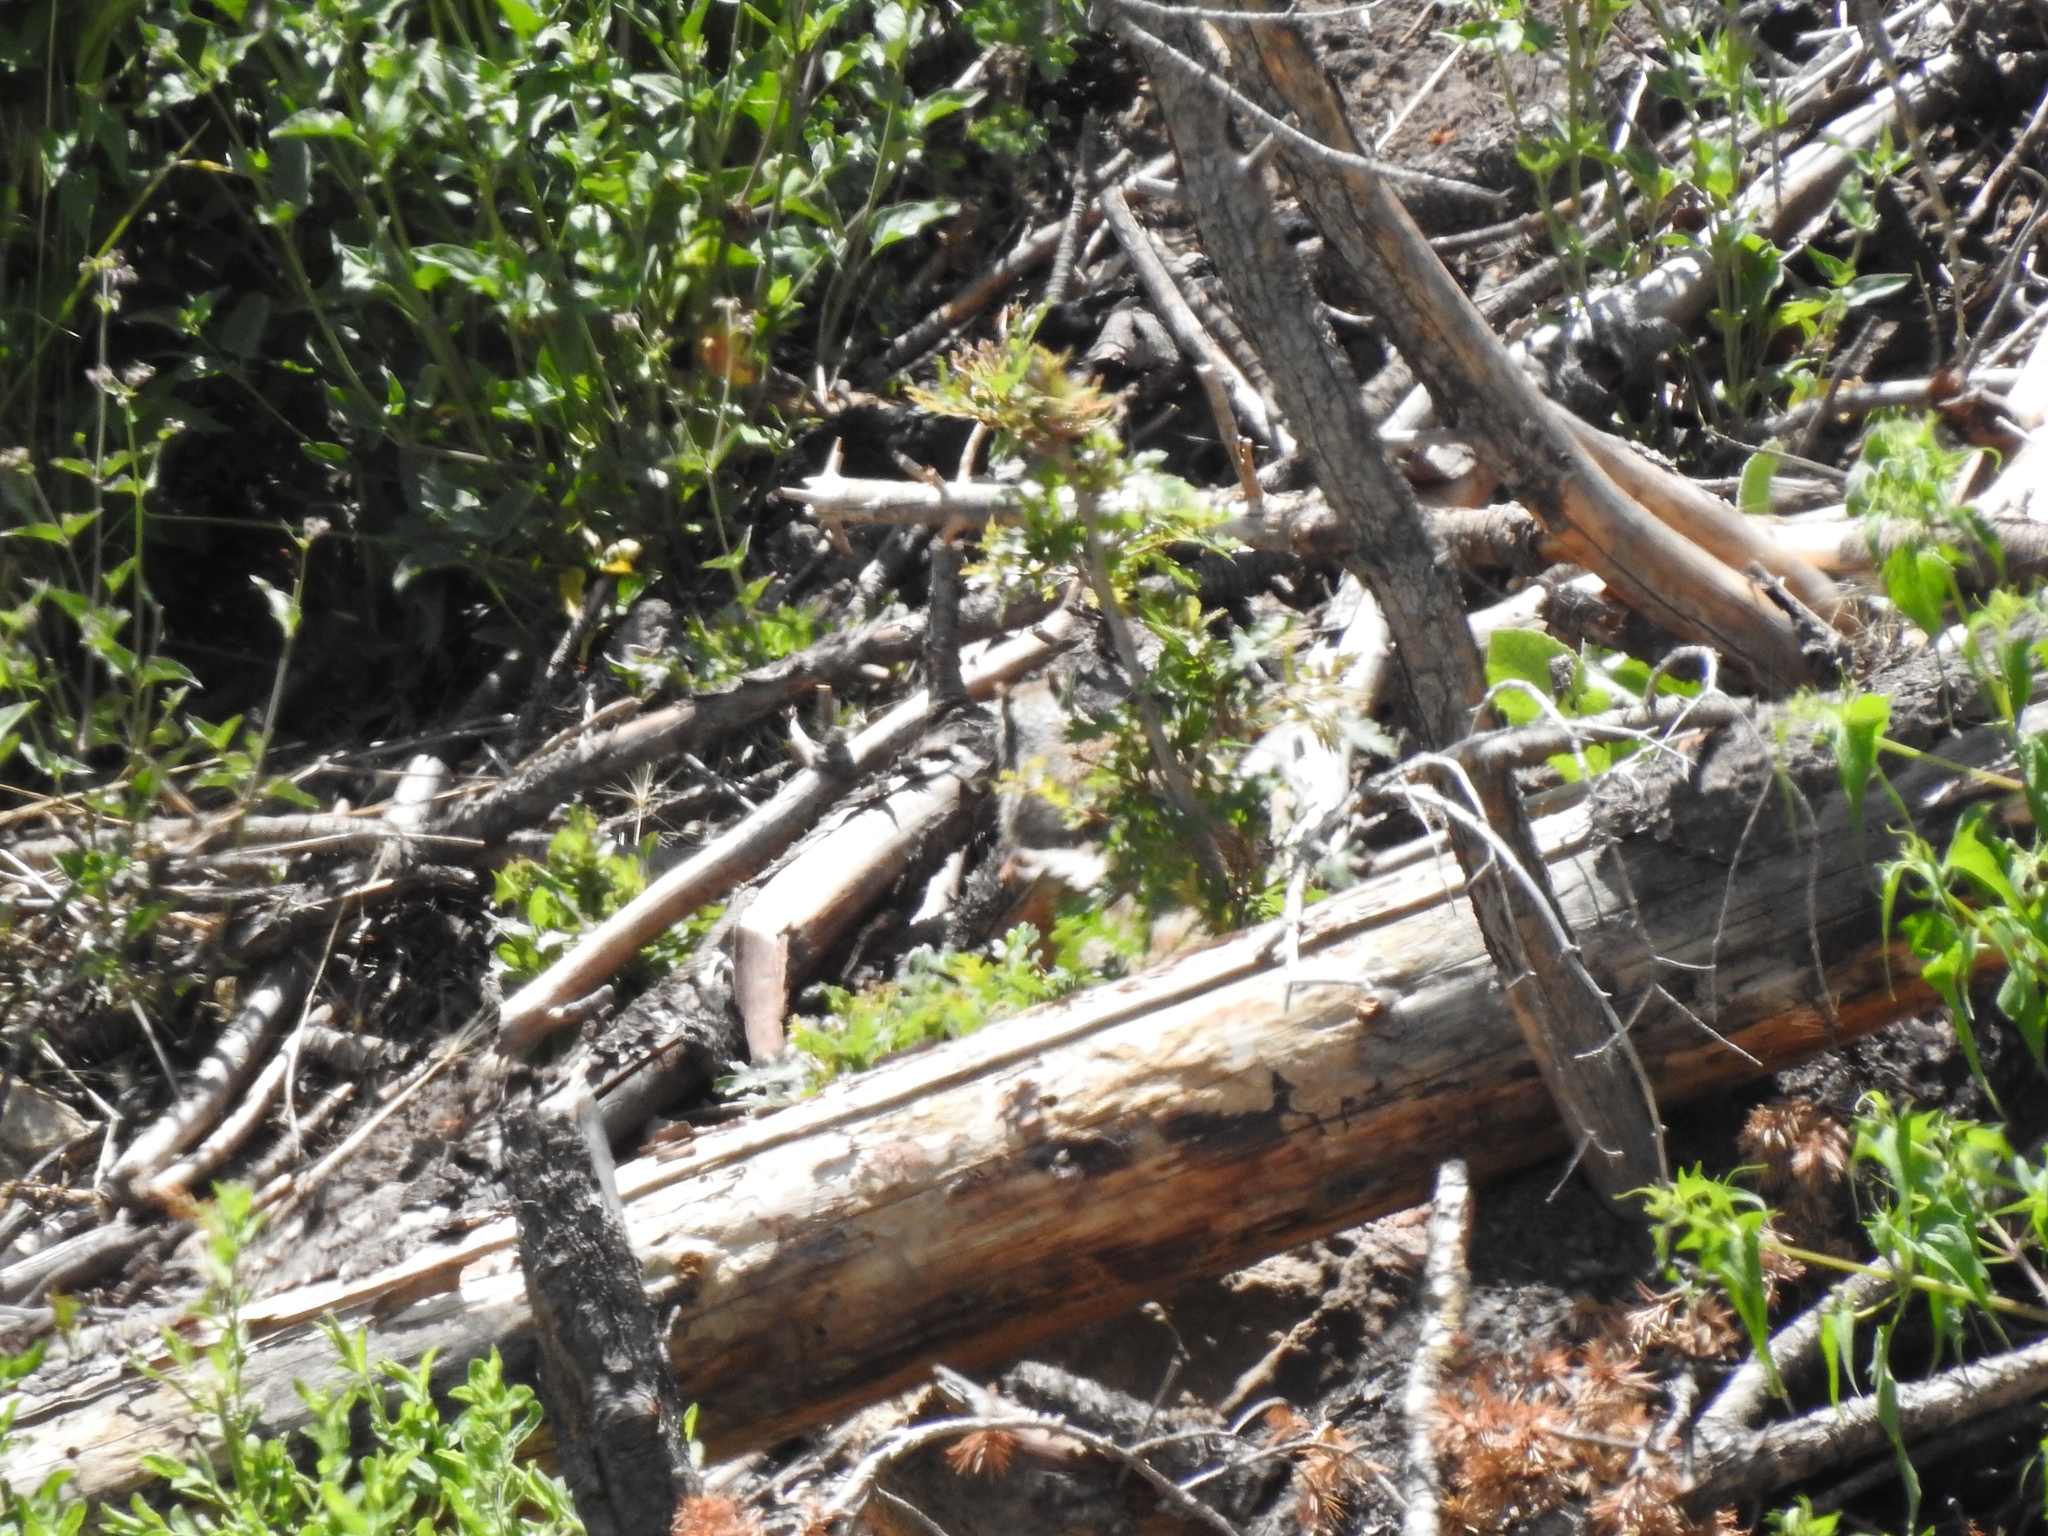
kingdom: Animalia
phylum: Chordata
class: Mammalia
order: Rodentia
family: Sciuridae
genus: Otospermophilus
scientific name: Otospermophilus variegatus
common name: Rock squirrel
